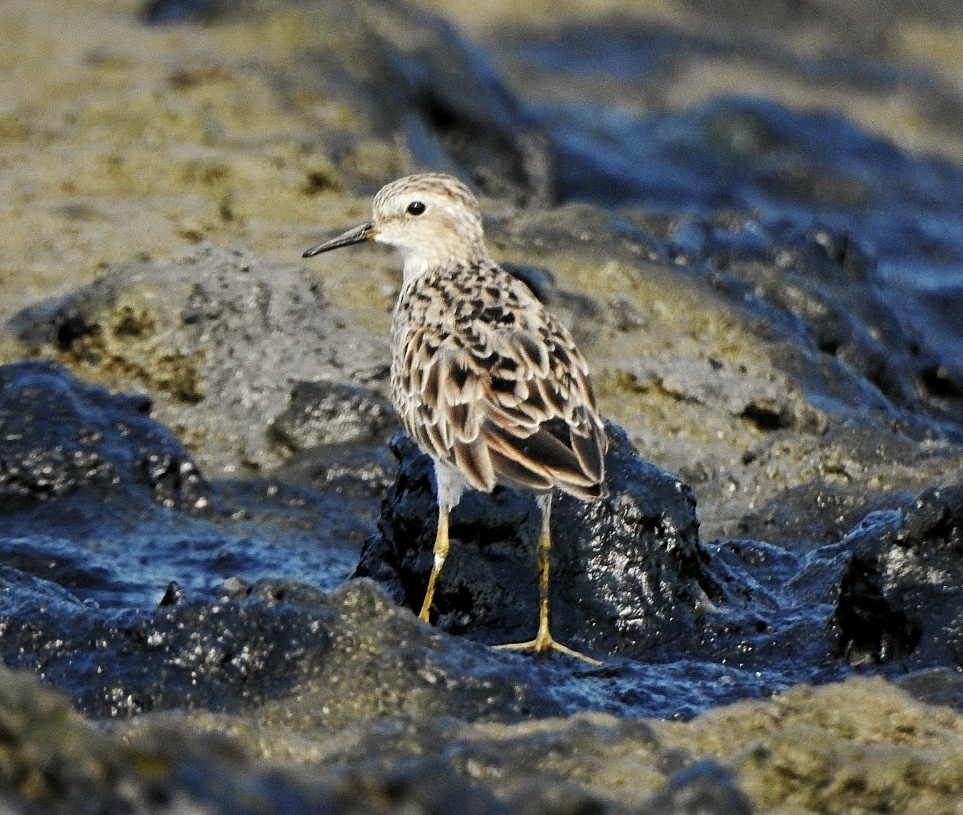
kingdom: Animalia
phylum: Chordata
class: Aves
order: Charadriiformes
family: Scolopacidae
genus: Calidris
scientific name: Calidris subminuta
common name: Long-toed stint
